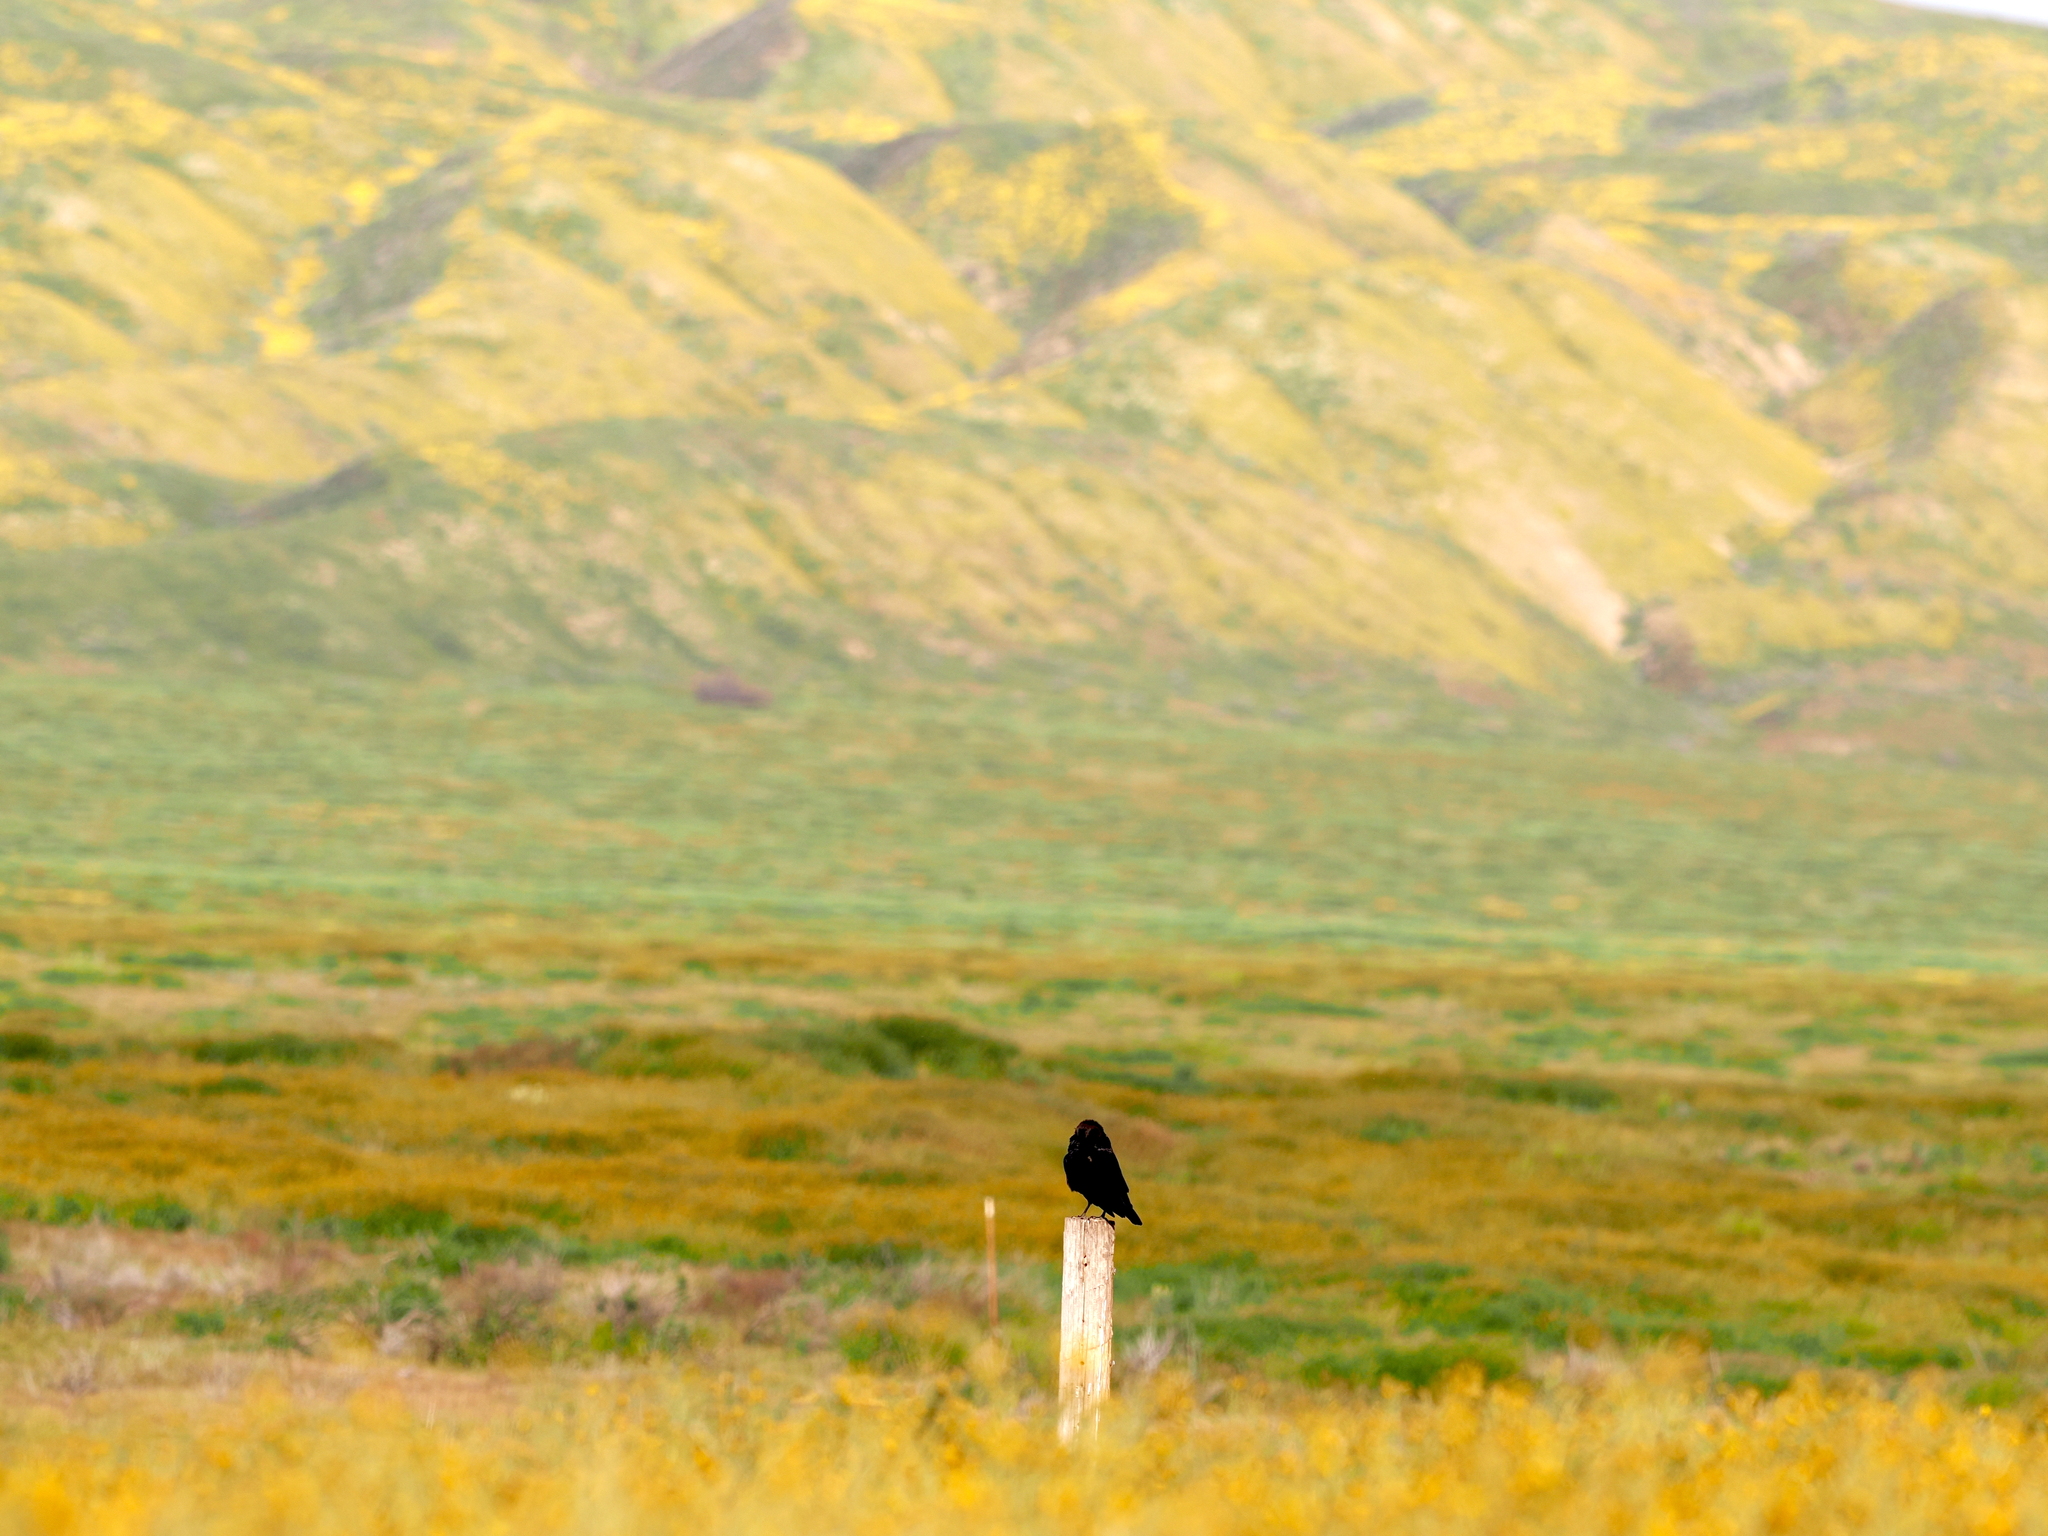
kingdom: Animalia
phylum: Chordata
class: Aves
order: Passeriformes
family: Corvidae
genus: Corvus
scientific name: Corvus corax
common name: Common raven
